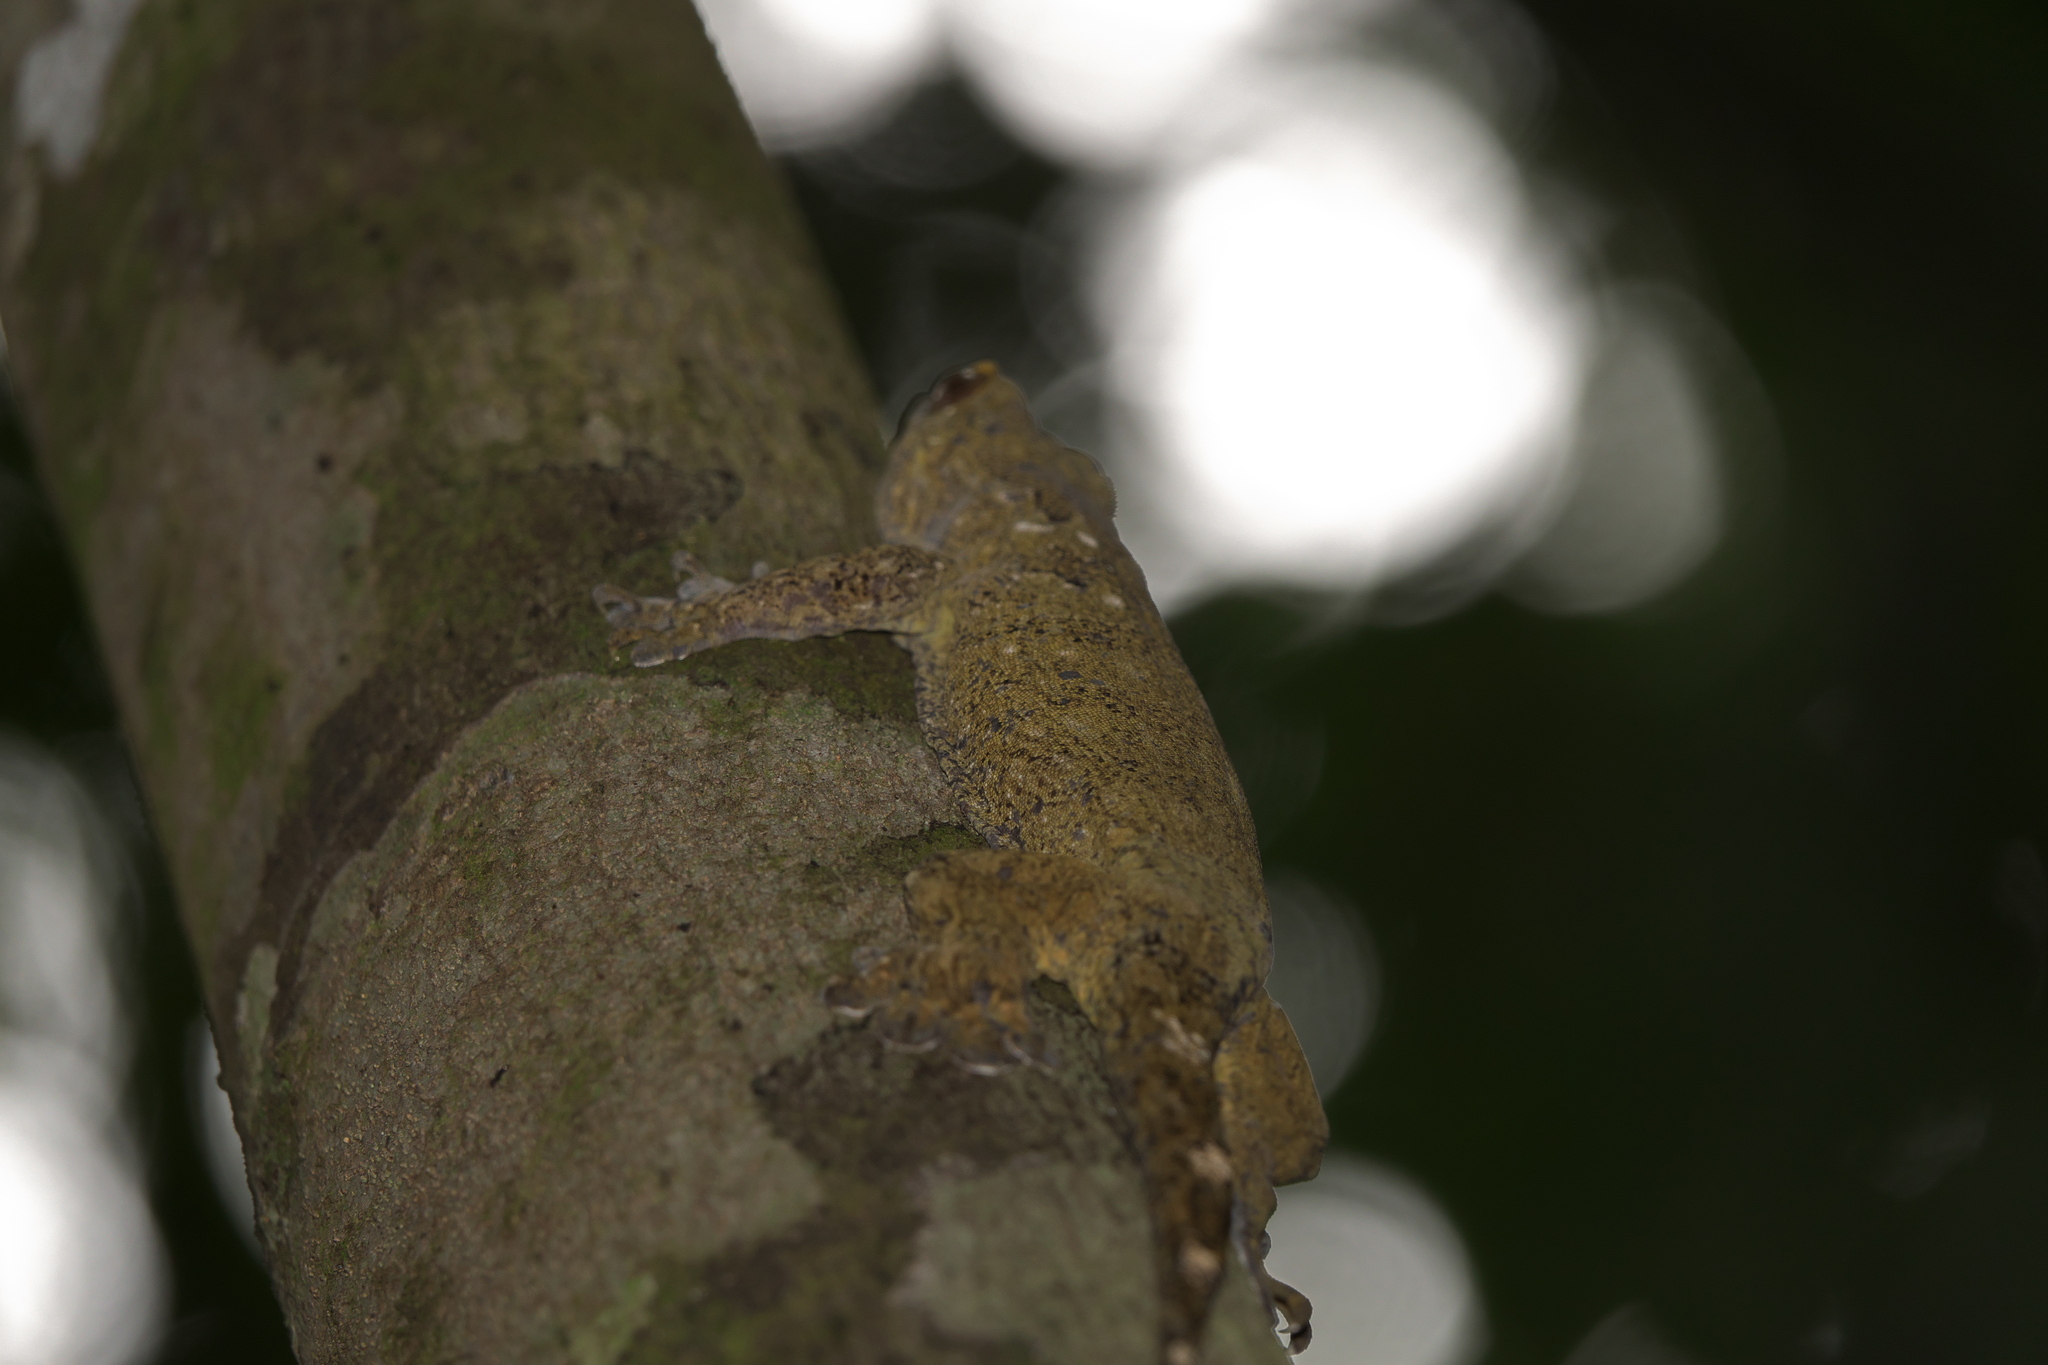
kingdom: Animalia
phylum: Chordata
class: Squamata
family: Gekkonidae
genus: Gehyra
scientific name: Gehyra vorax
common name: Voracious dtella
